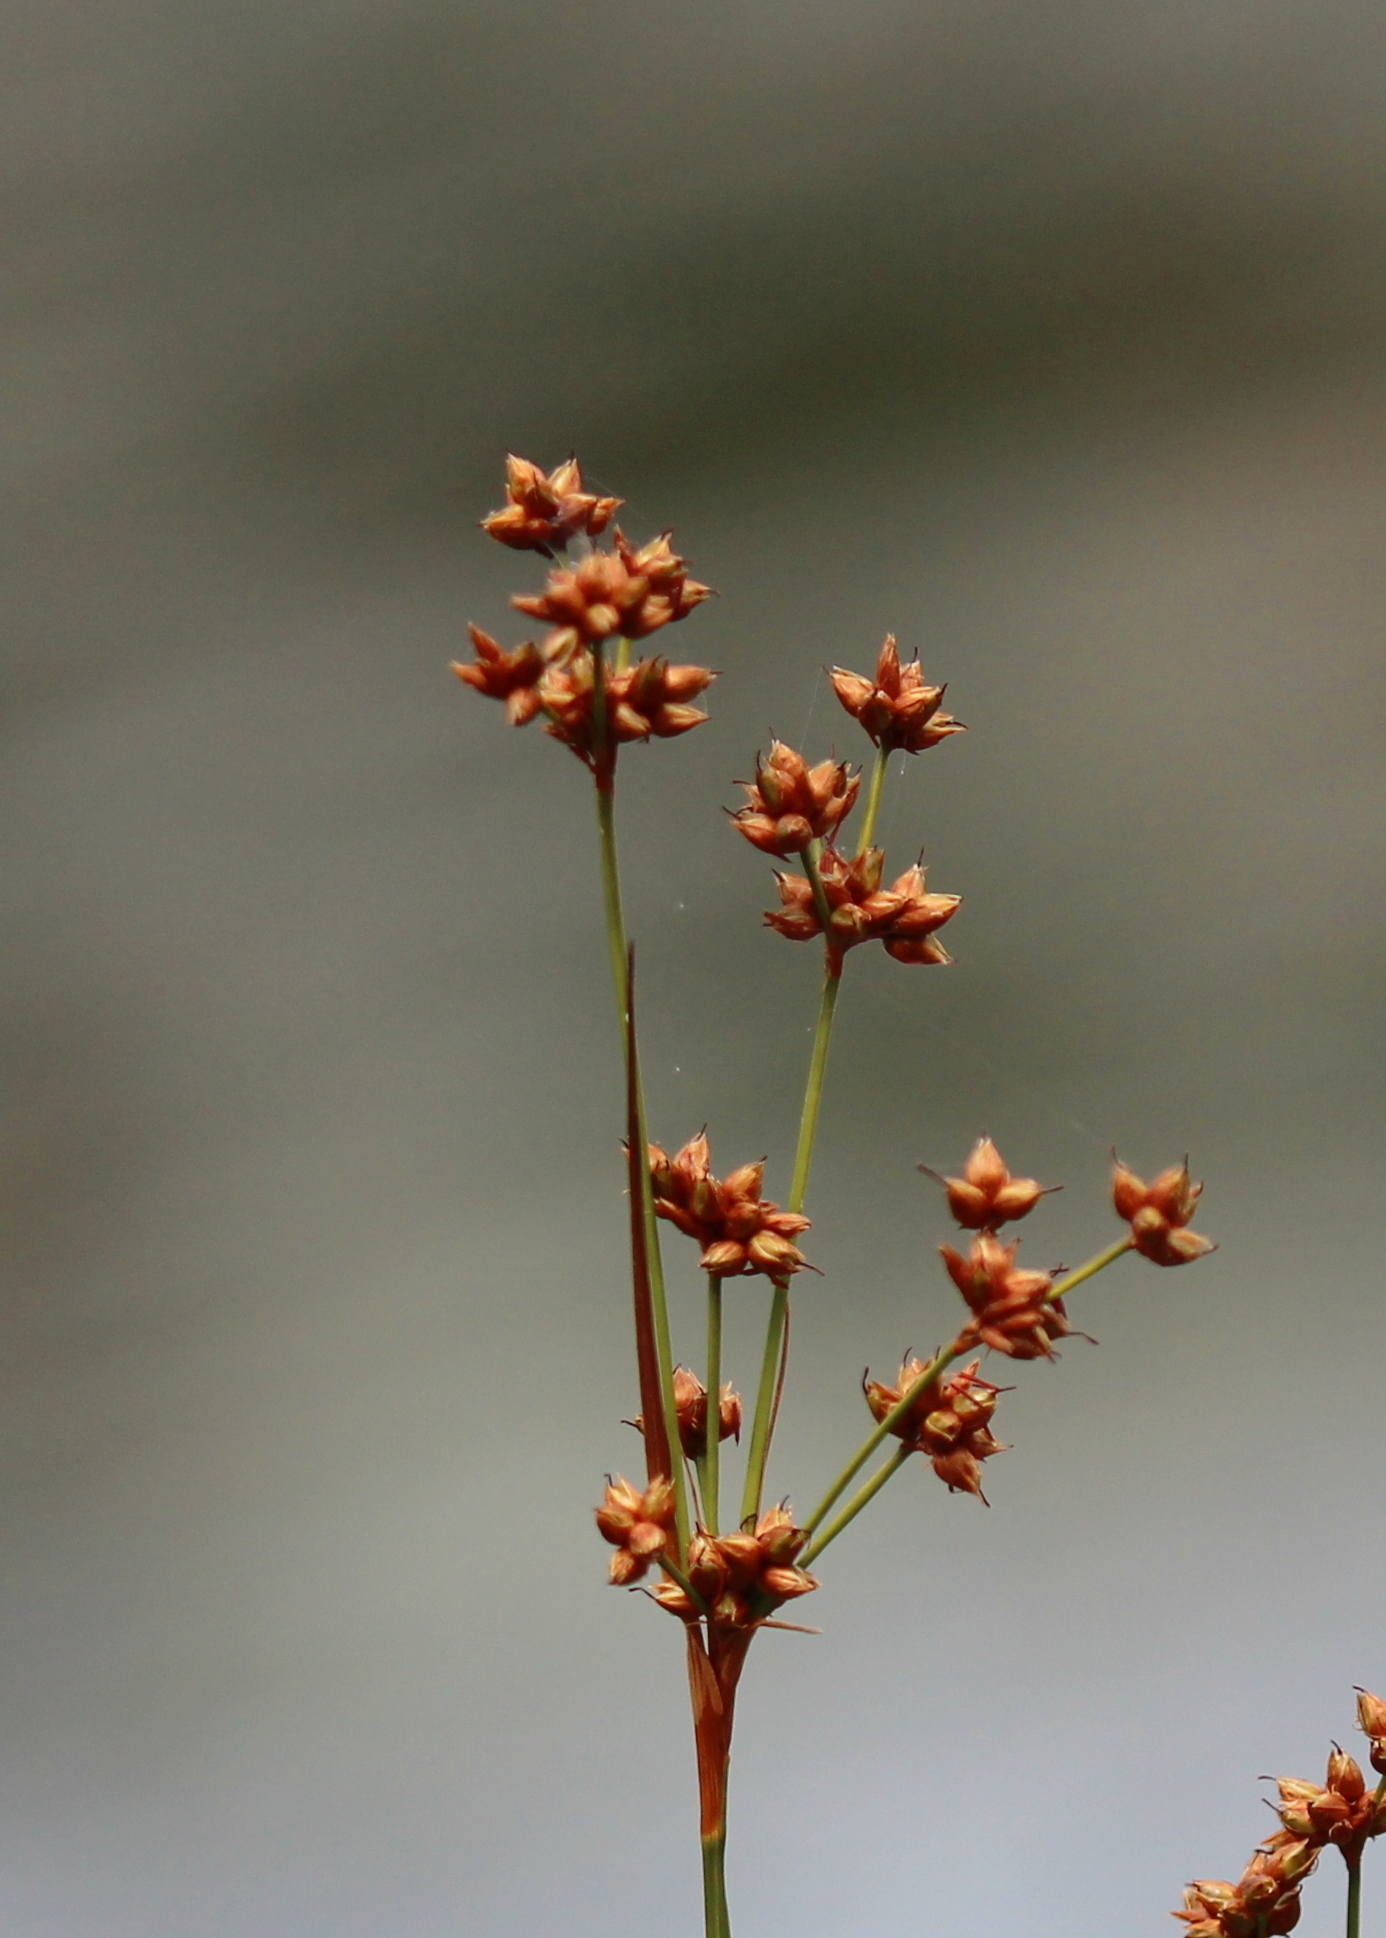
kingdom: Plantae
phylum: Tracheophyta
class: Liliopsida
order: Poales
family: Cyperaceae
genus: Cladium
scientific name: Cladium mariscoides
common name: Smooth sawgrass
